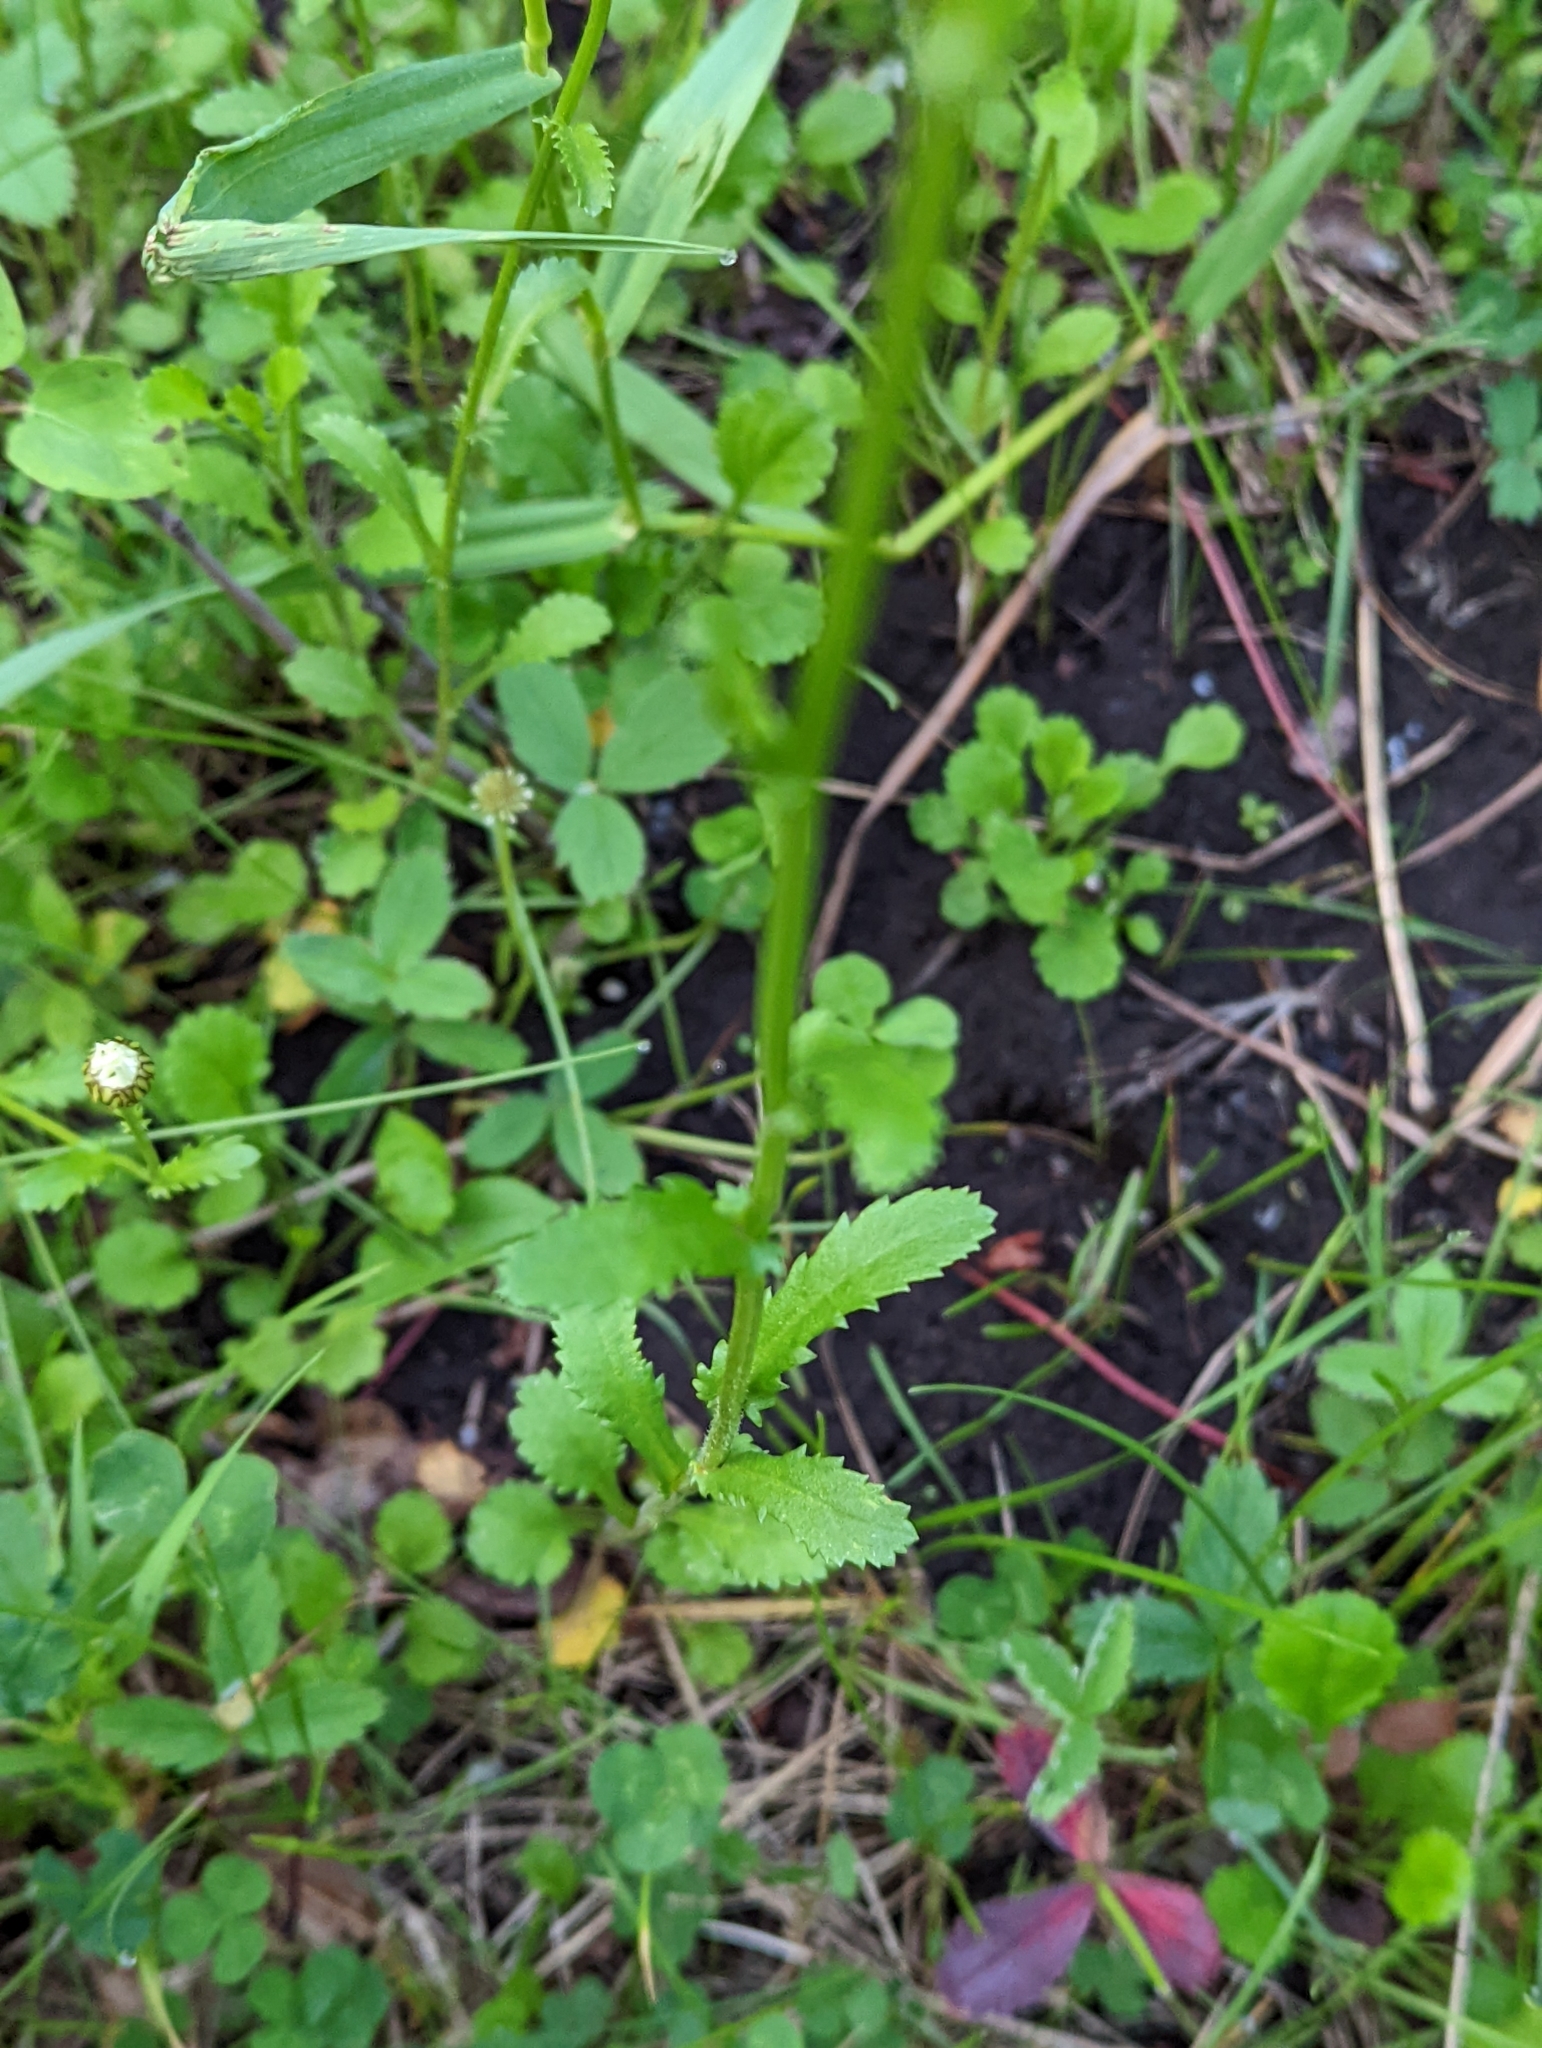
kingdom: Plantae
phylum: Tracheophyta
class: Magnoliopsida
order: Asterales
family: Asteraceae
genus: Leucanthemum
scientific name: Leucanthemum vulgare
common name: Oxeye daisy
